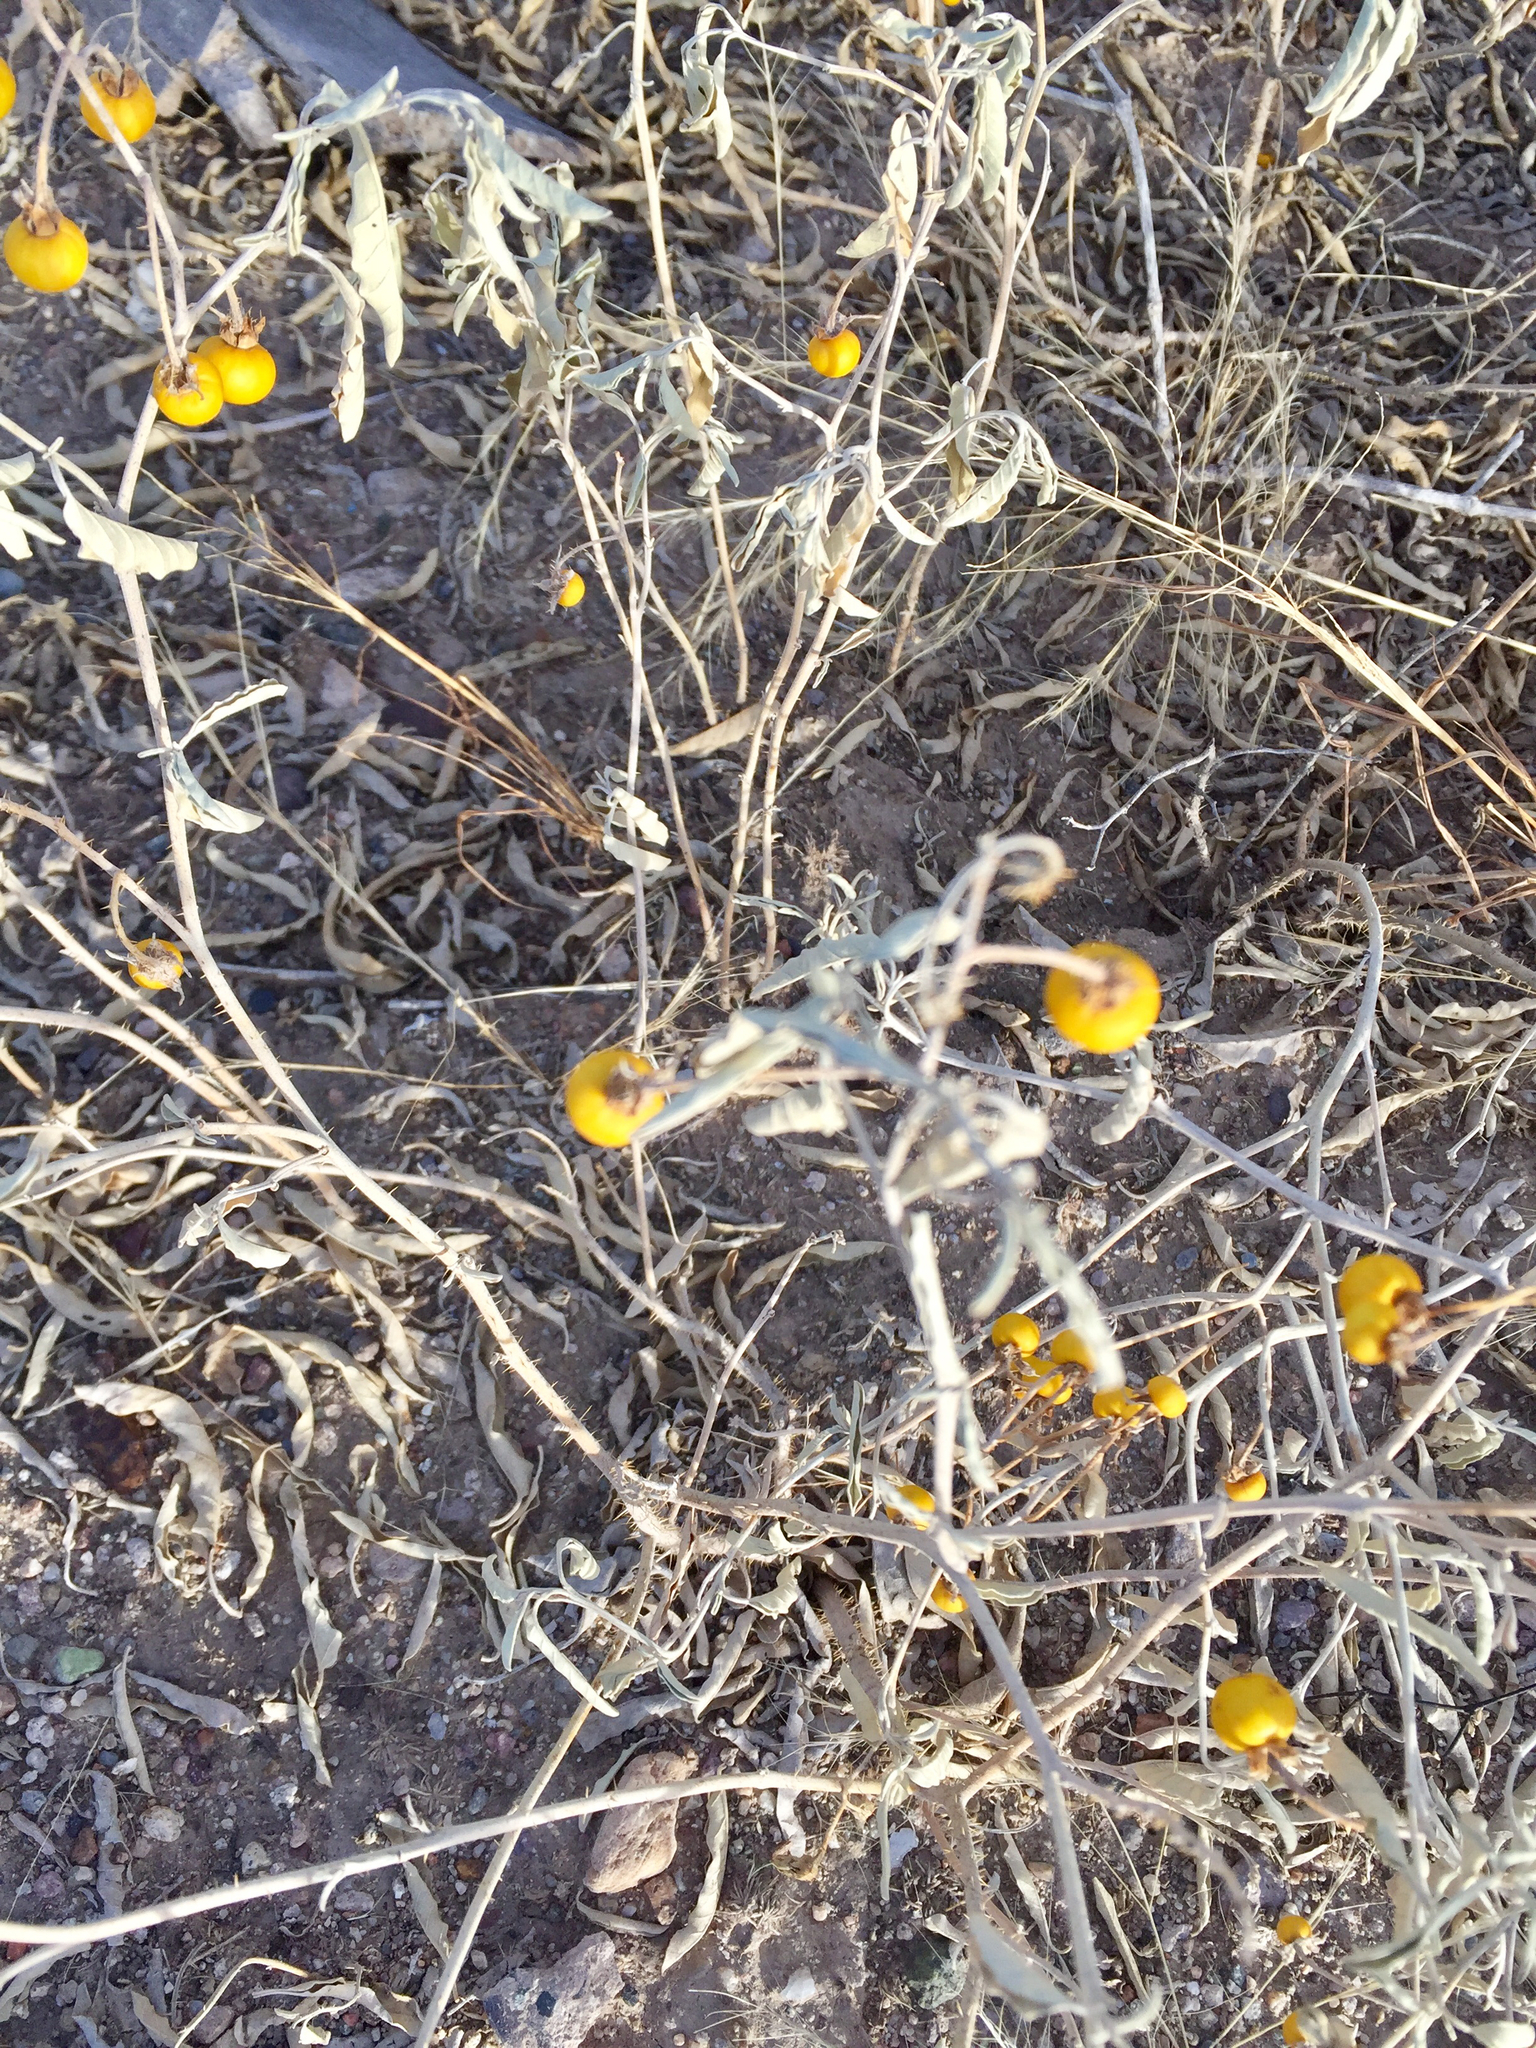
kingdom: Plantae
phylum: Tracheophyta
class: Magnoliopsida
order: Solanales
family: Solanaceae
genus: Solanum
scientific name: Solanum elaeagnifolium
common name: Silverleaf nightshade
